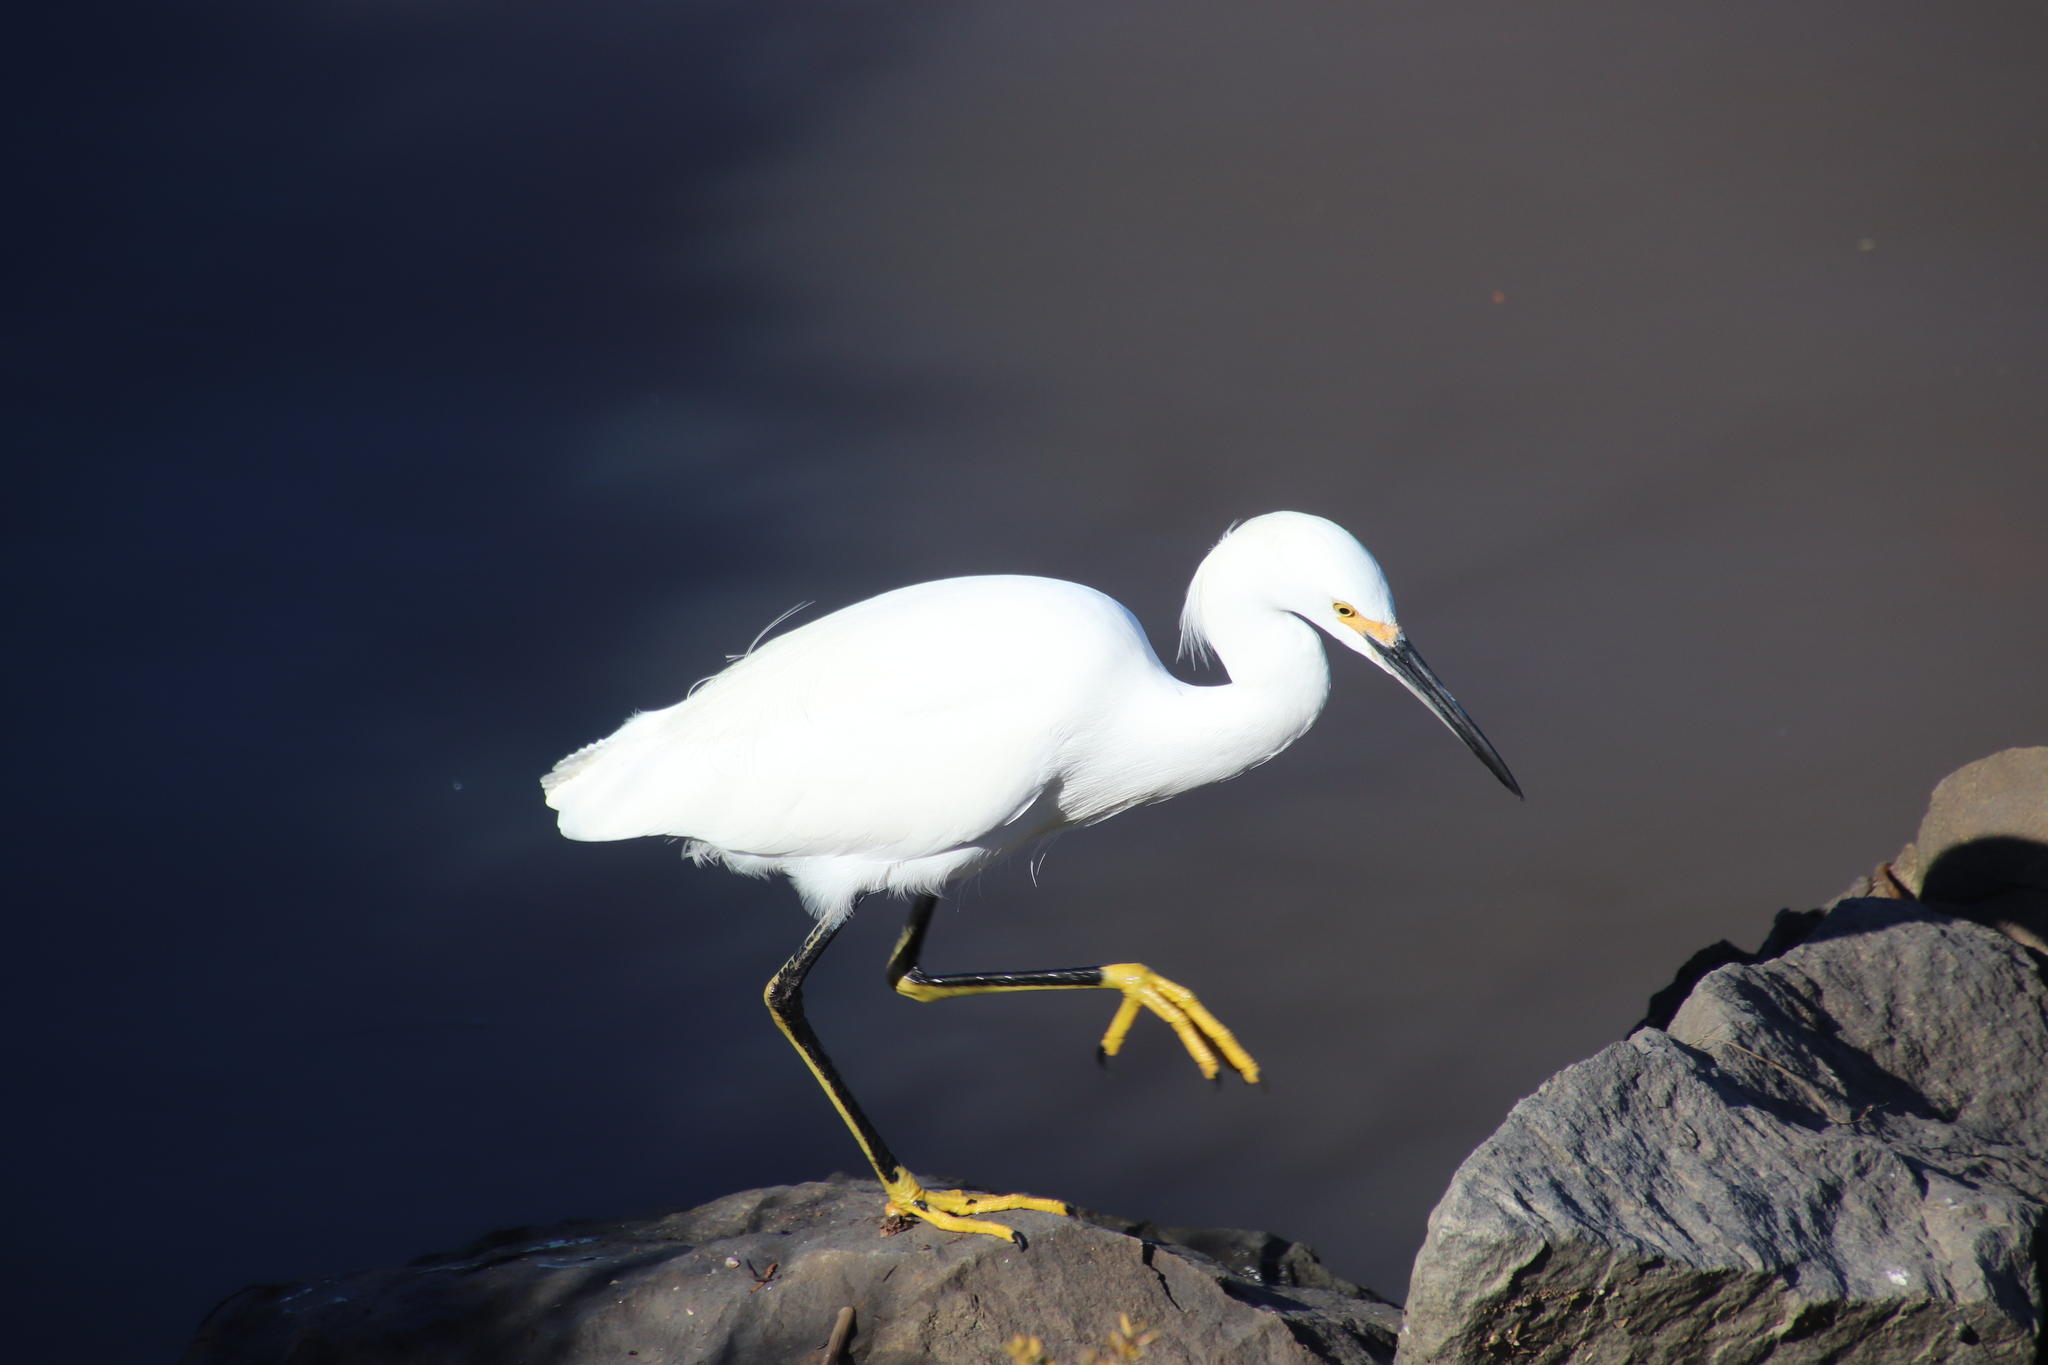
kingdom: Animalia
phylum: Chordata
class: Aves
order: Pelecaniformes
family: Ardeidae
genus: Egretta
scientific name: Egretta thula
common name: Snowy egret
